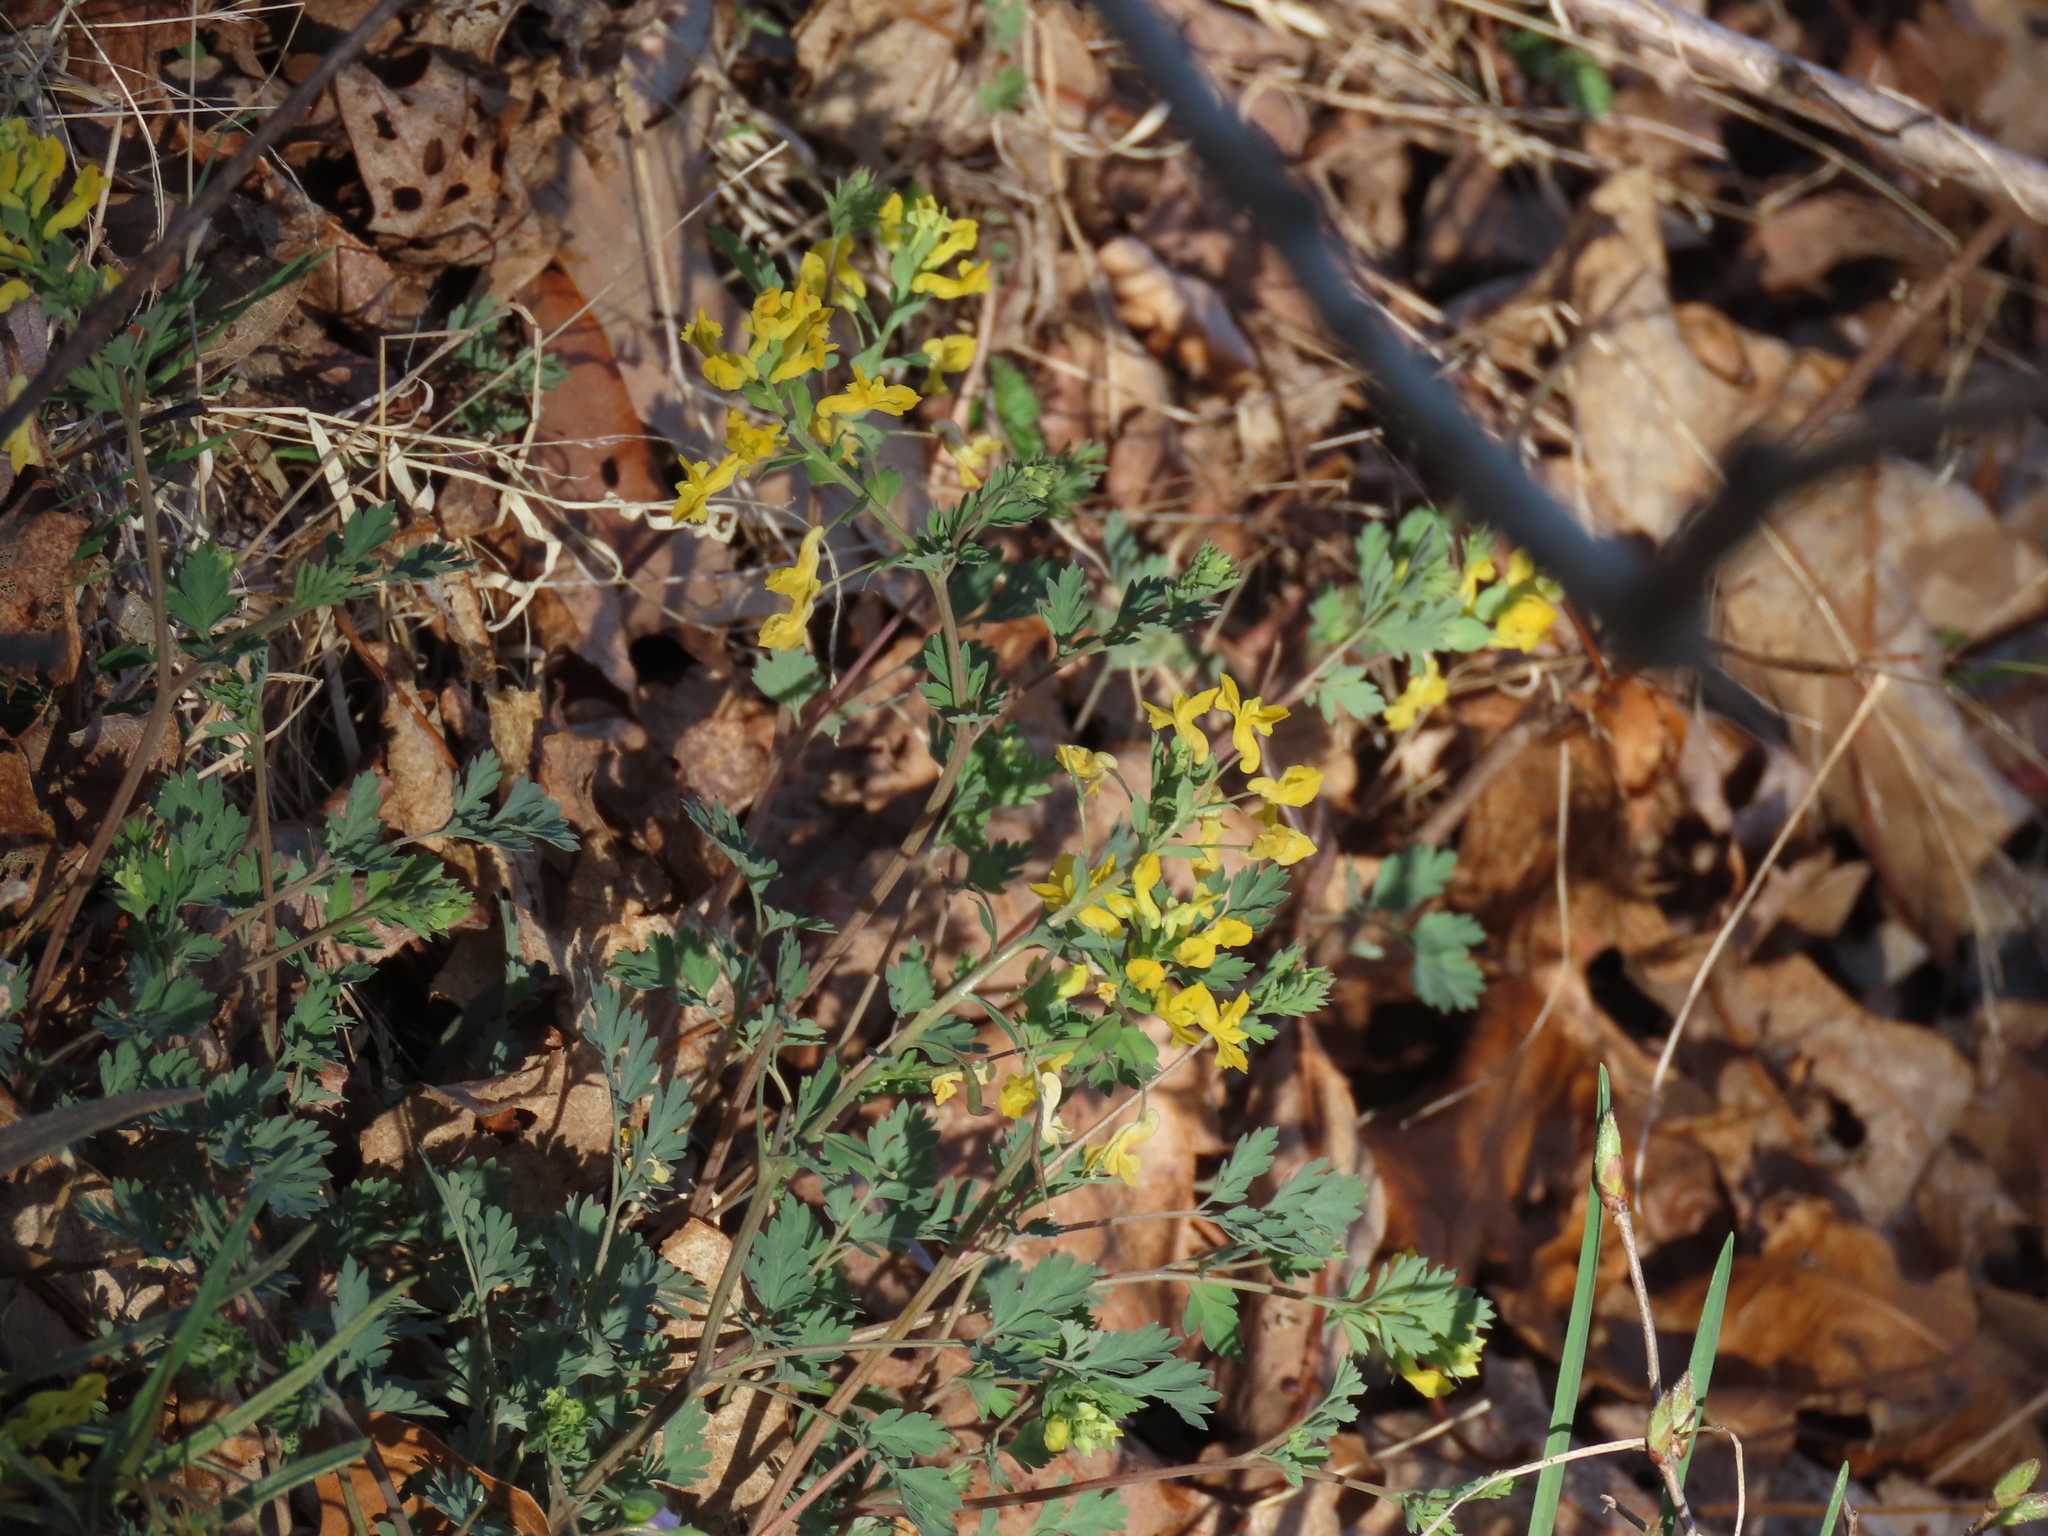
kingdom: Plantae
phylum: Tracheophyta
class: Magnoliopsida
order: Ranunculales
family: Papaveraceae
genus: Corydalis
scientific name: Corydalis flavula
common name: Yellow corydalis
